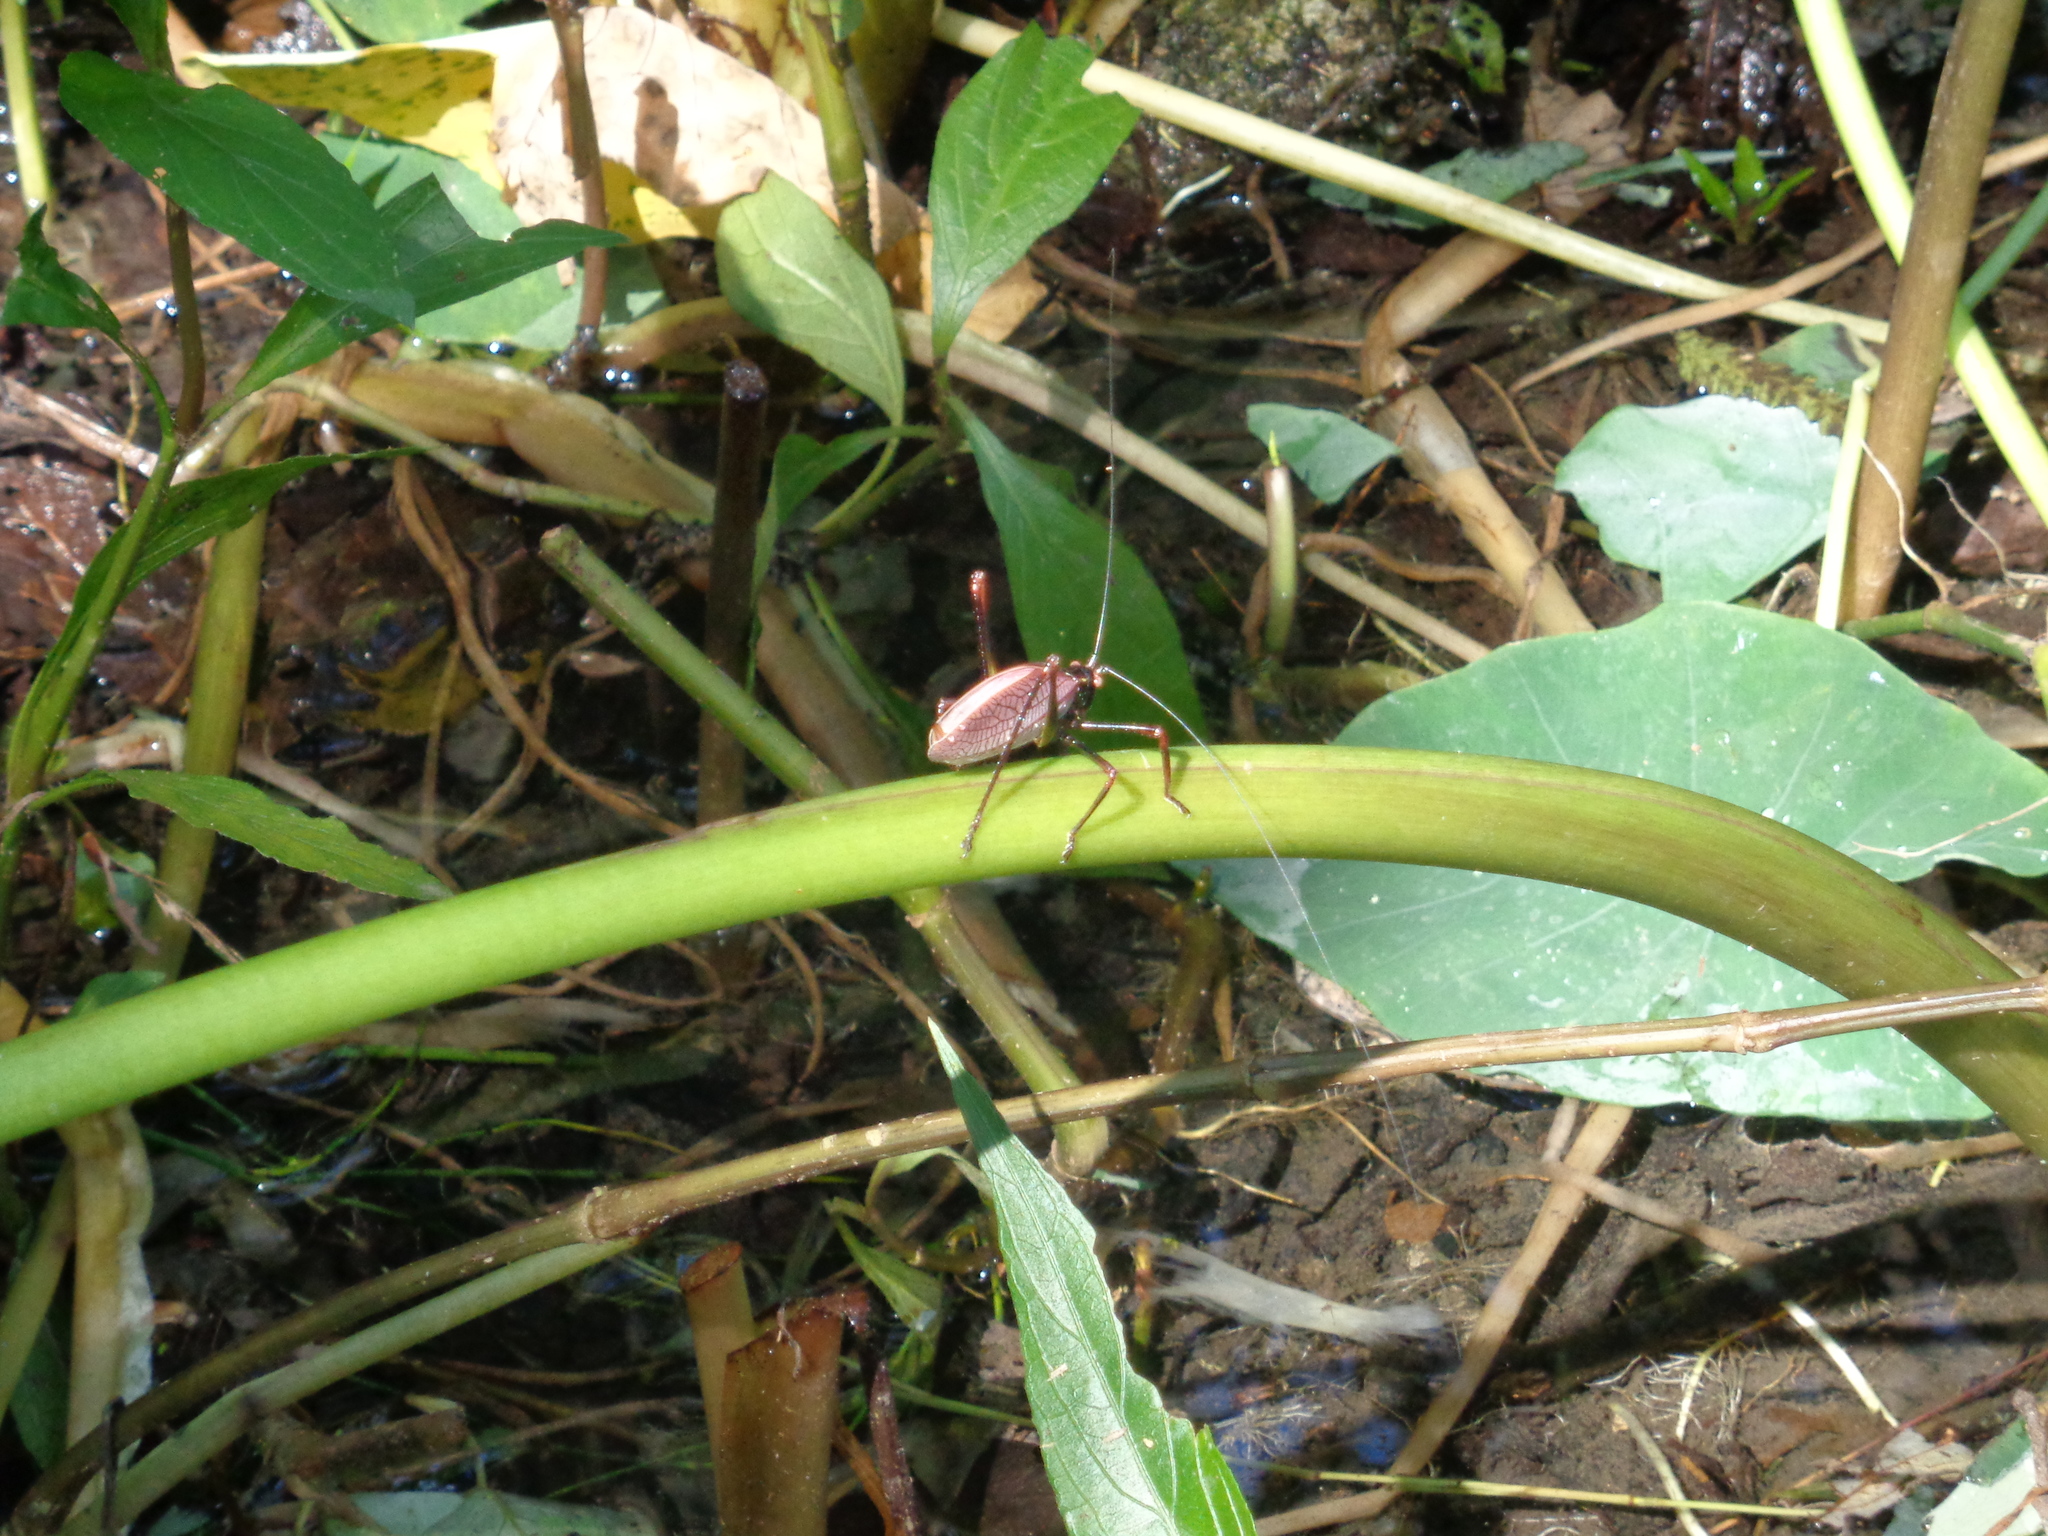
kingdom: Animalia
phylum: Arthropoda
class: Insecta
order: Orthoptera
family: Tettigoniidae
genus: Pterophylla
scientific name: Pterophylla beltrani
